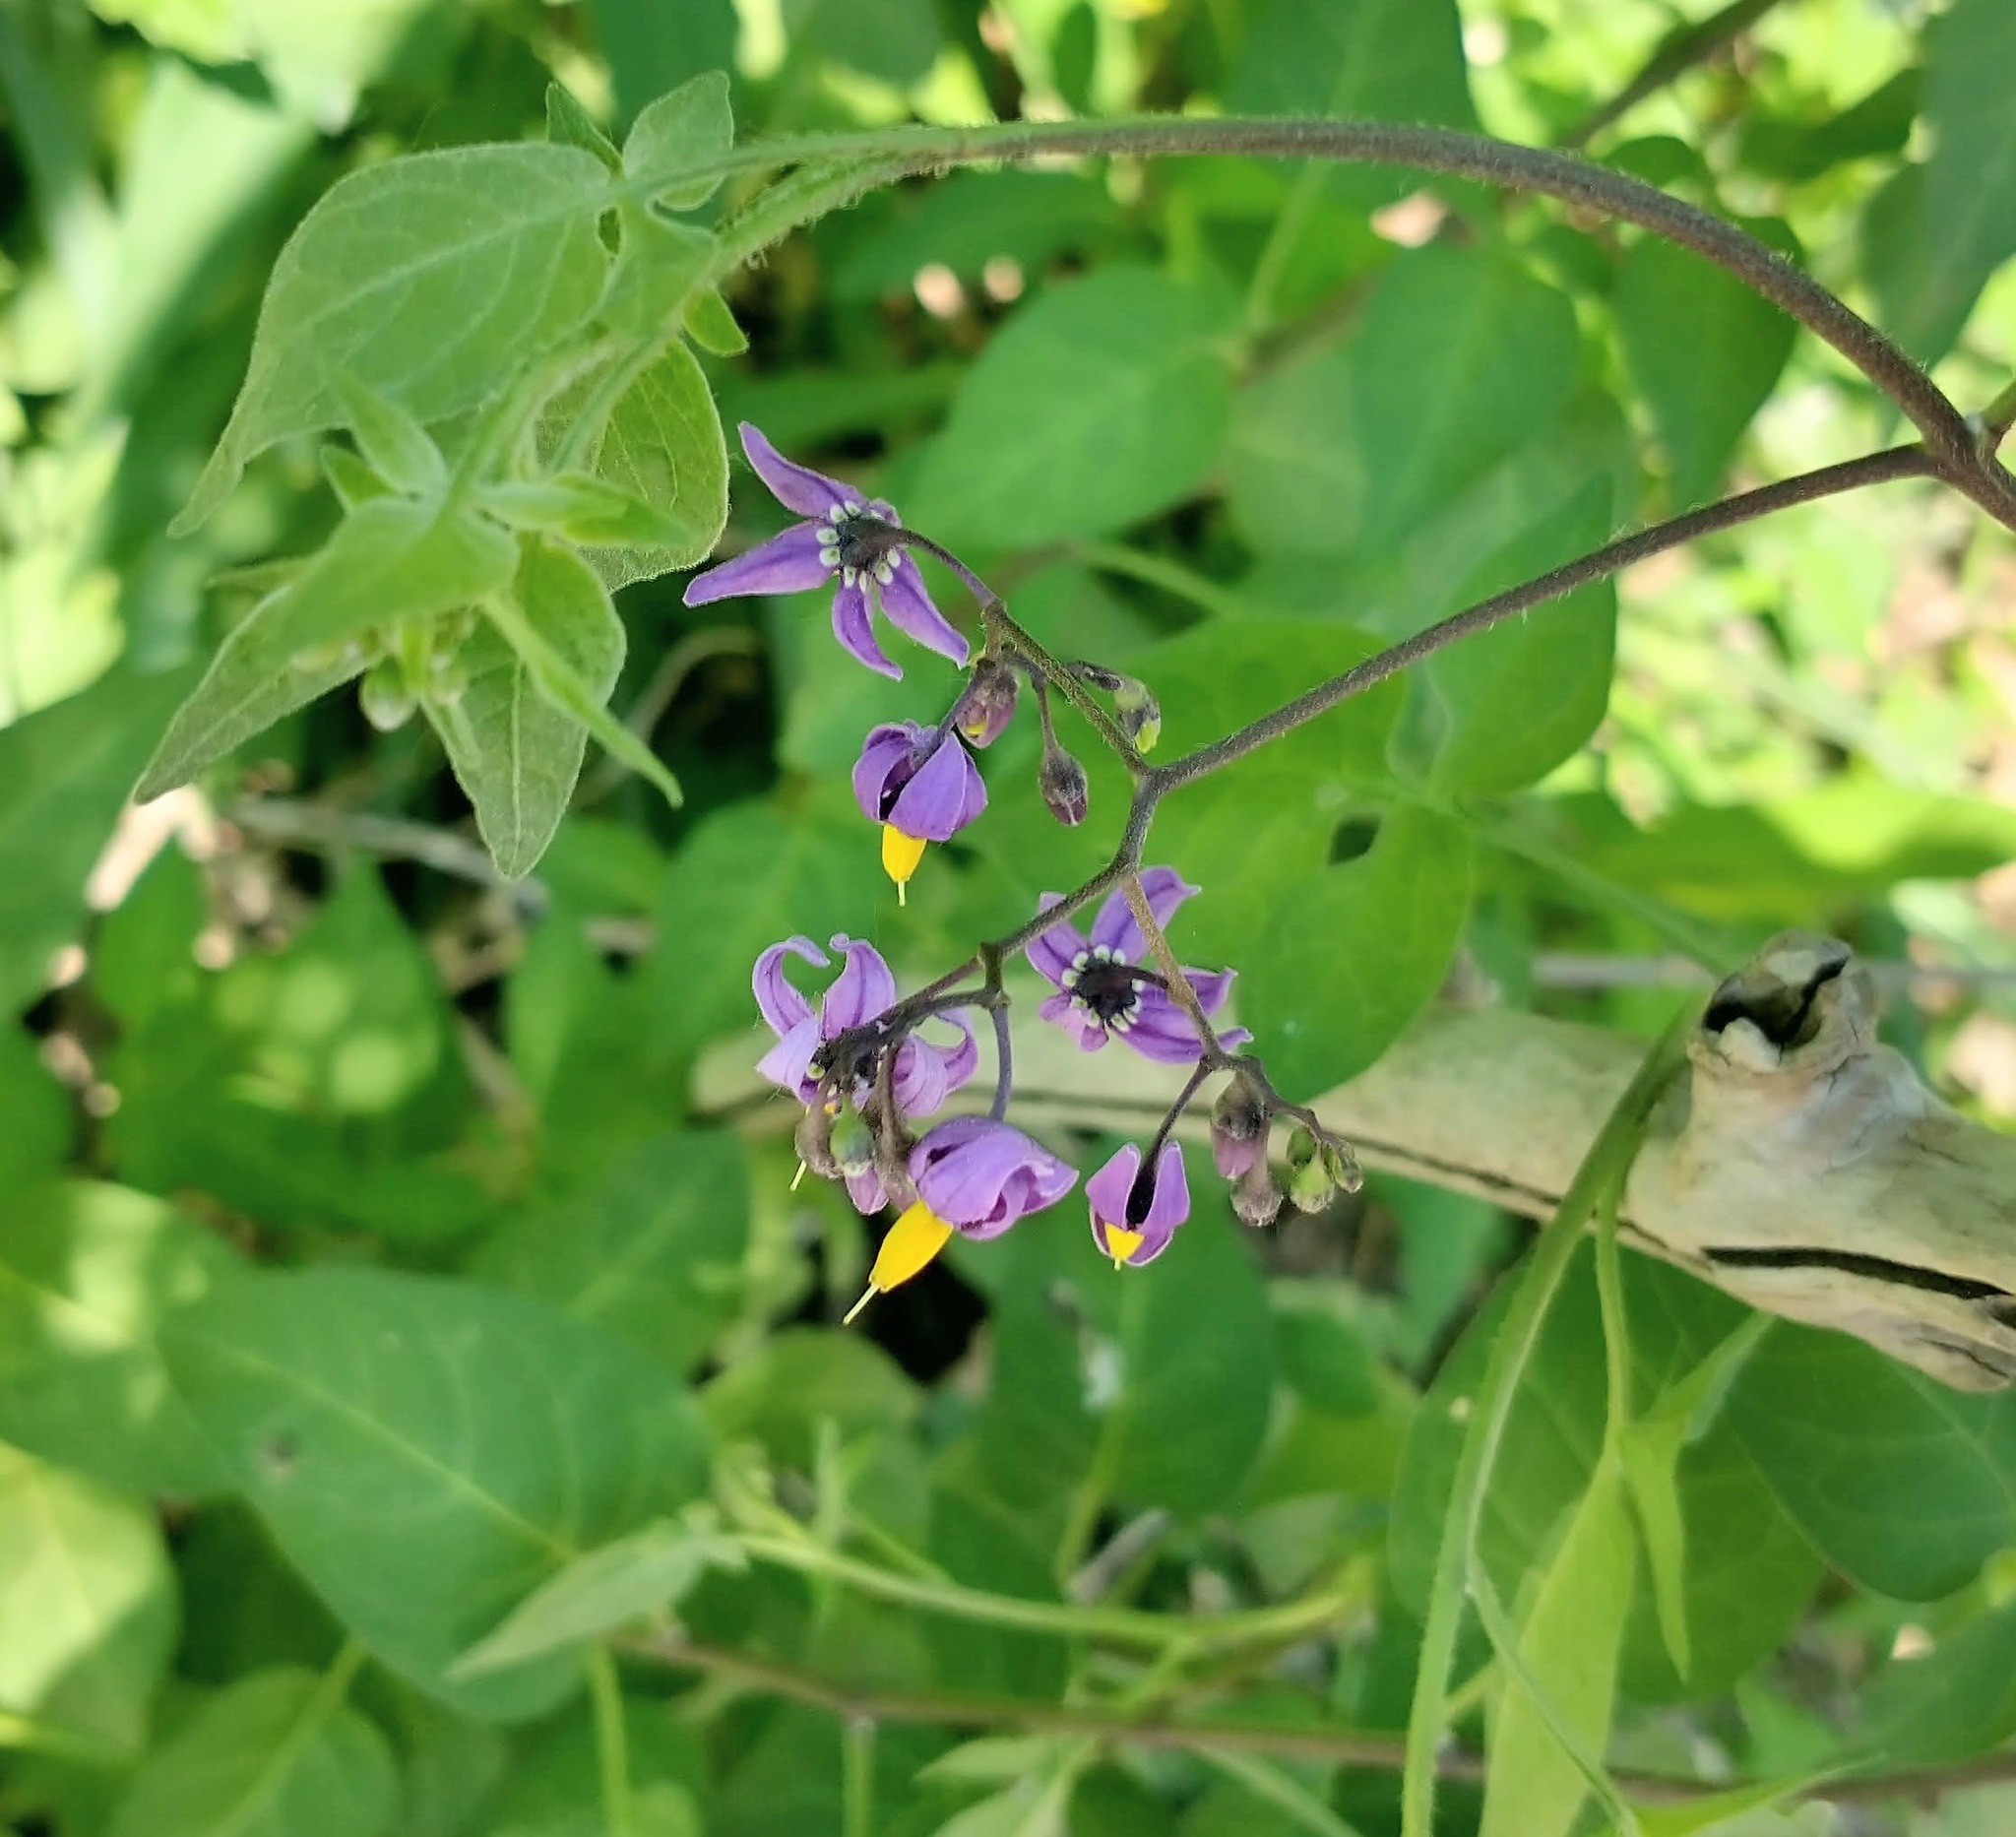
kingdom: Plantae
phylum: Tracheophyta
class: Magnoliopsida
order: Solanales
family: Solanaceae
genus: Solanum
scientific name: Solanum dulcamara
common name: Climbing nightshade
